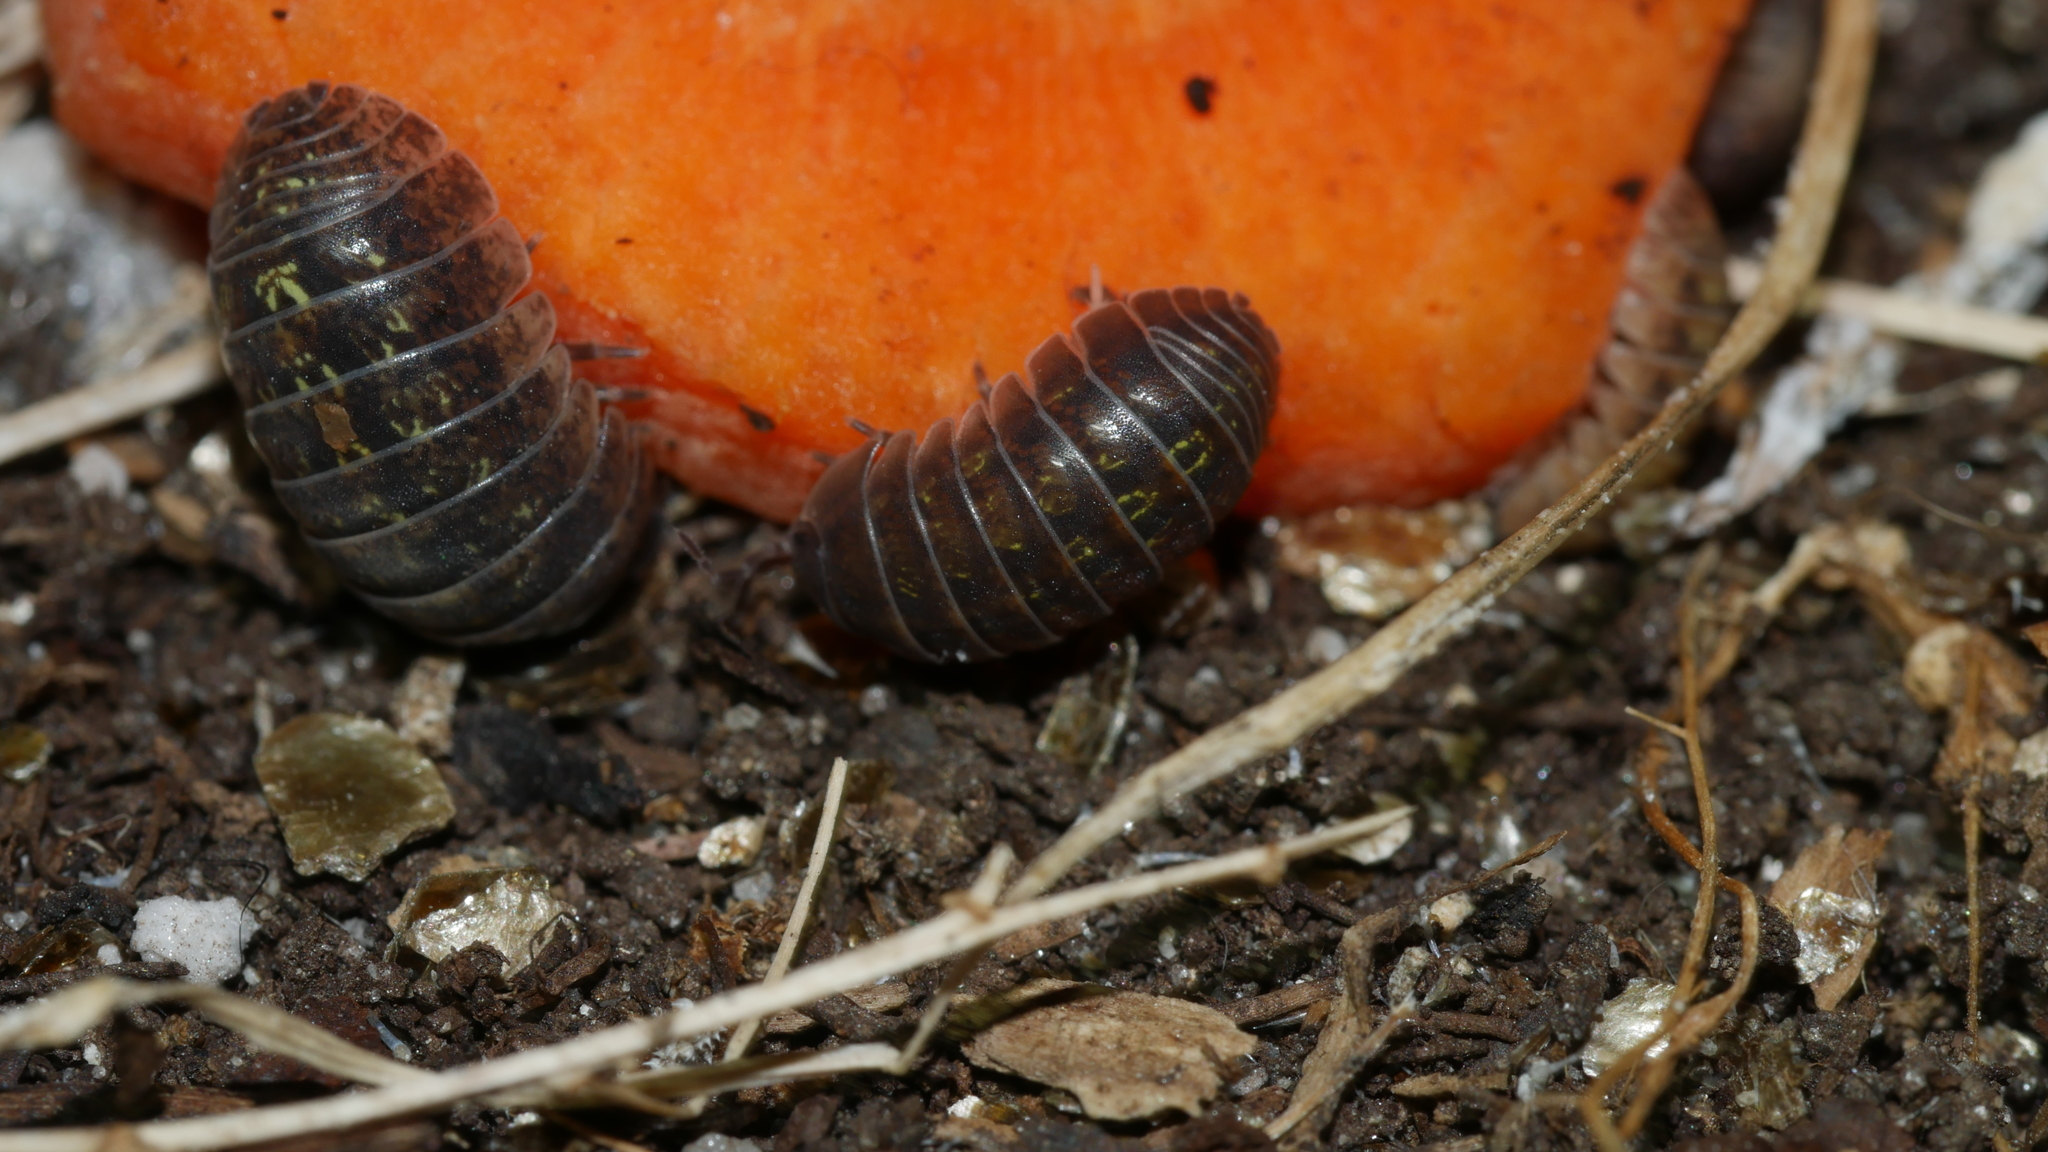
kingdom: Animalia
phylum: Arthropoda
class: Malacostraca
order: Isopoda
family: Armadillidiidae
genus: Armadillidium
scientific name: Armadillidium vulgare
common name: Common pill woodlouse
